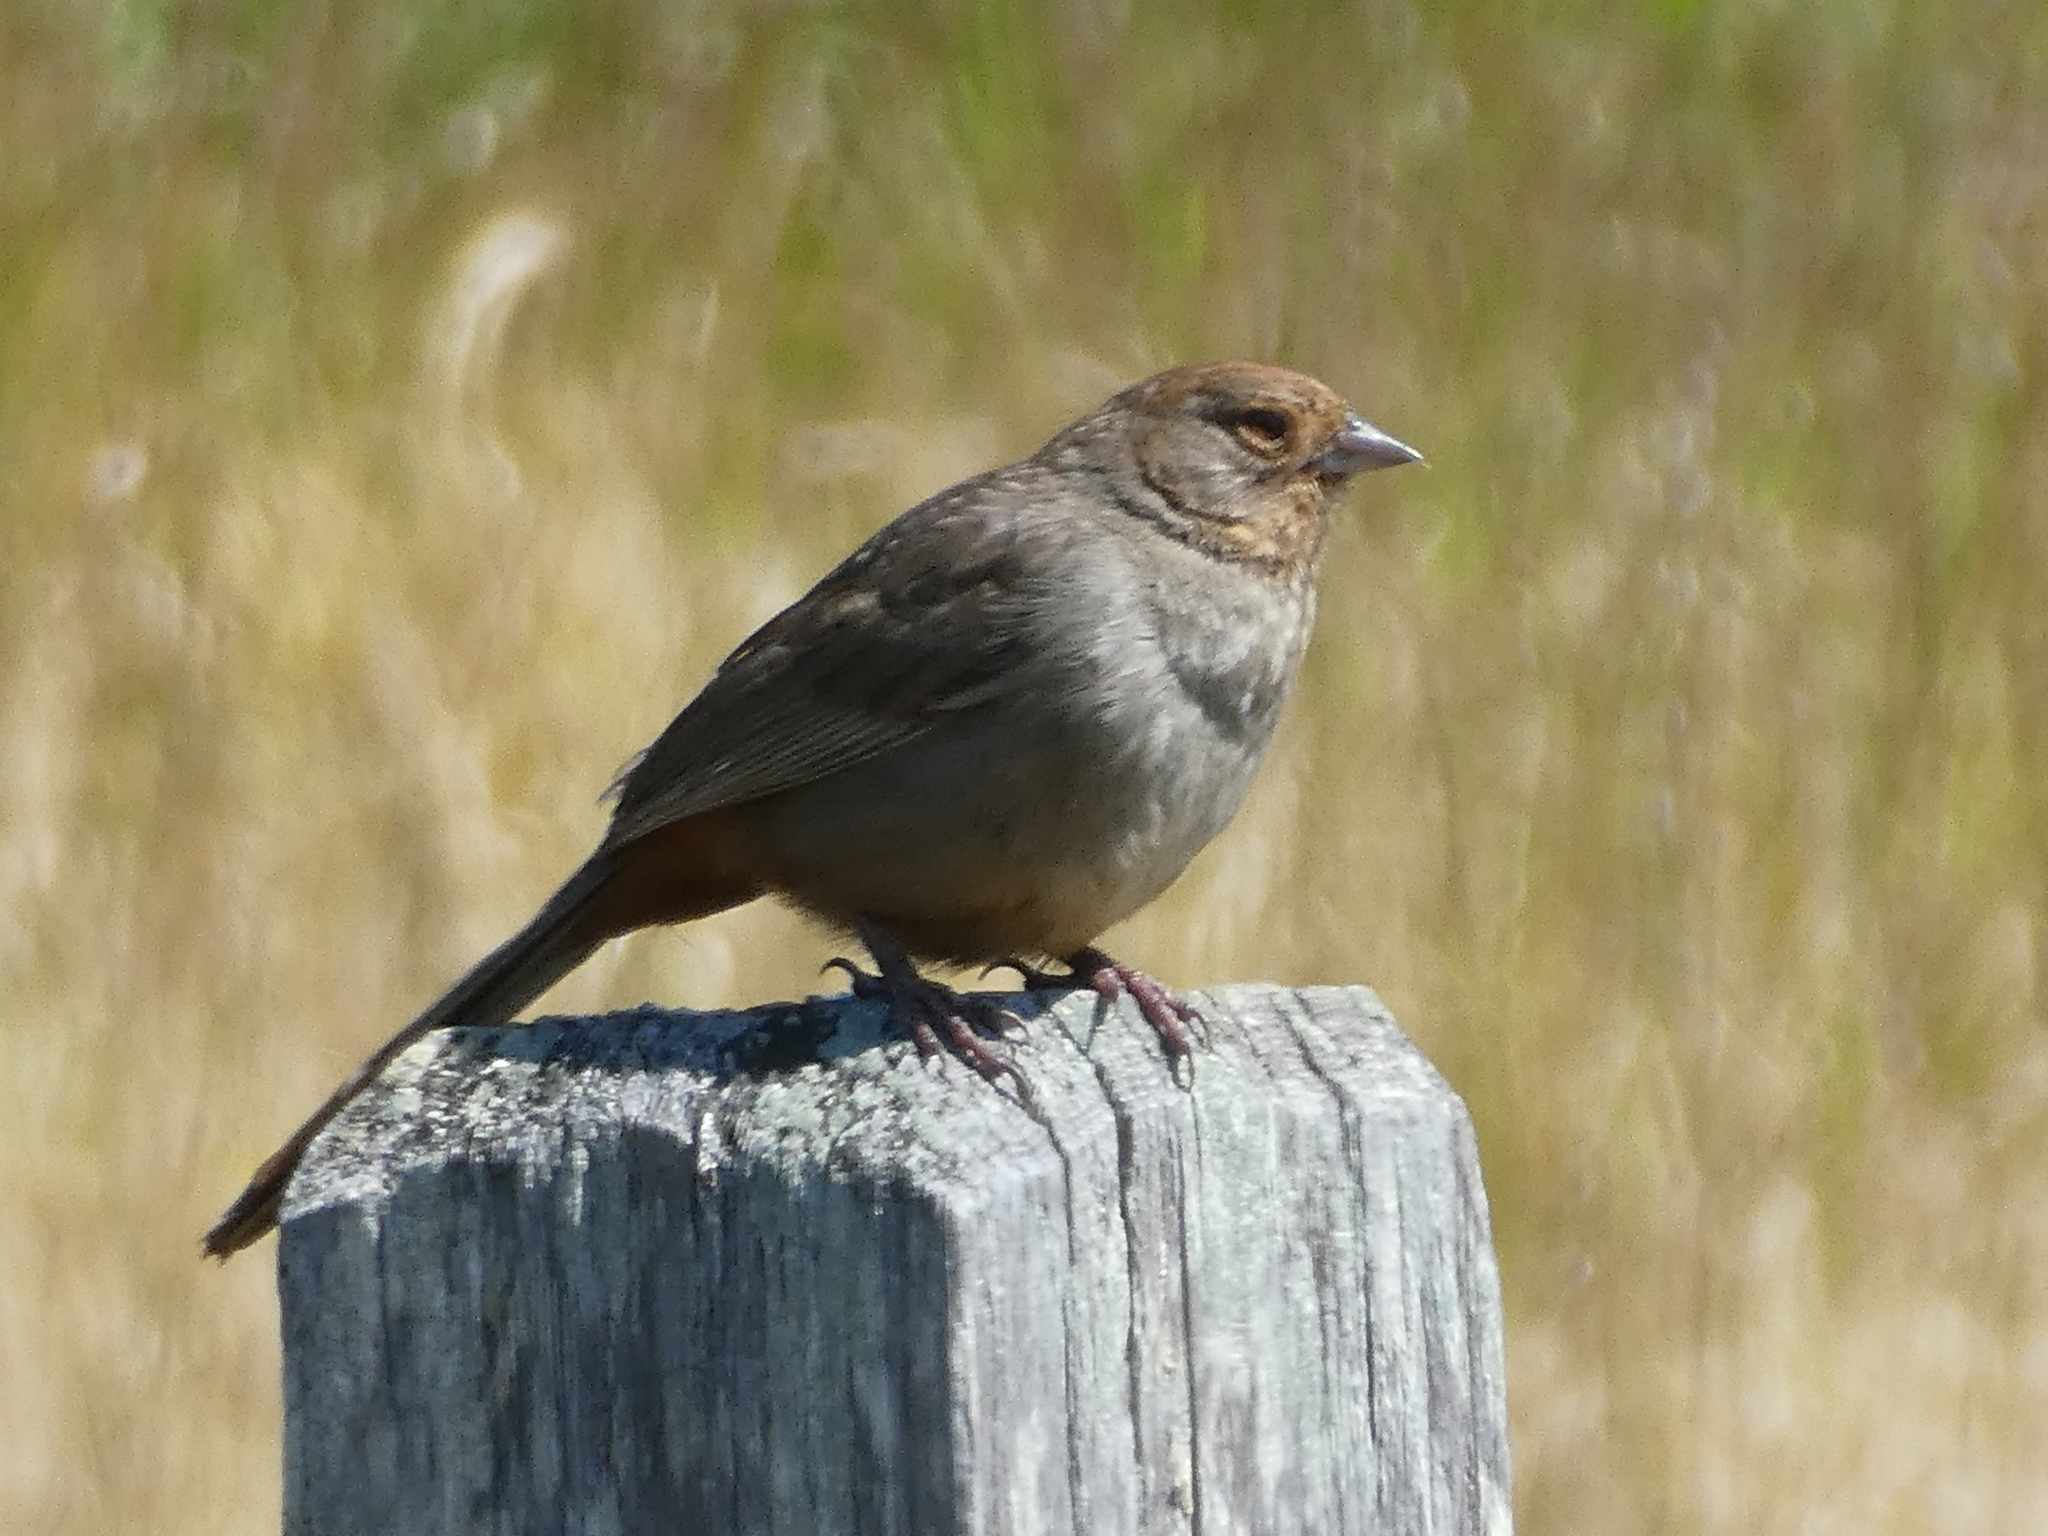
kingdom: Animalia
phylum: Chordata
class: Aves
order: Passeriformes
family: Passerellidae
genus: Melozone
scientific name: Melozone crissalis
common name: California towhee
